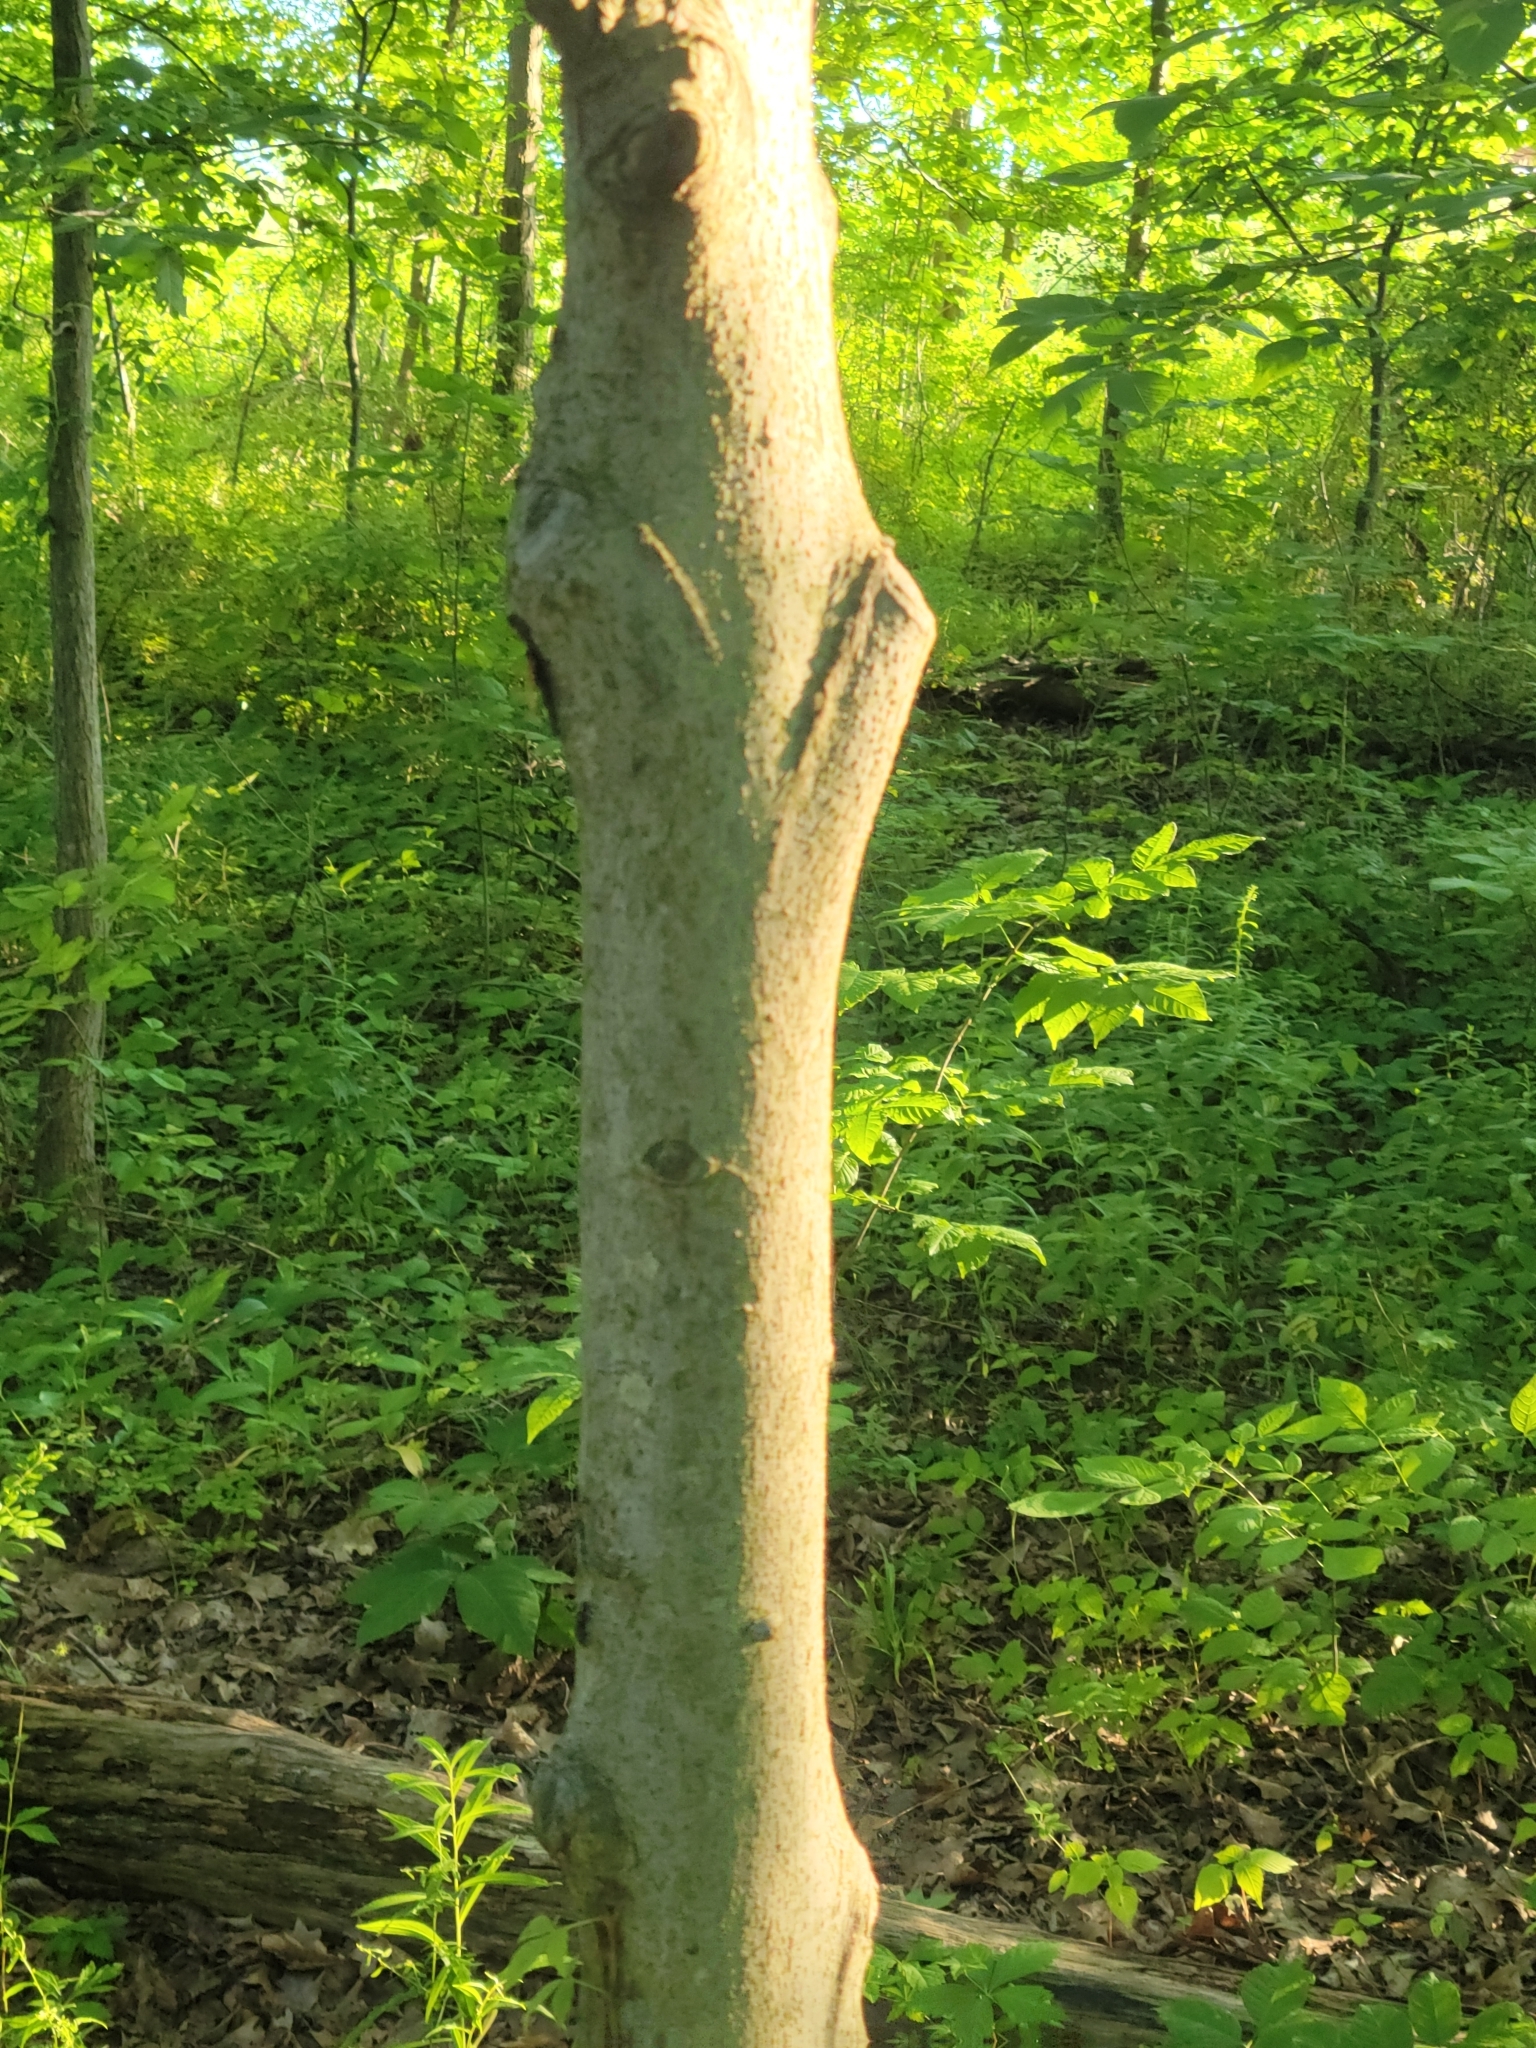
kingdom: Plantae
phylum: Tracheophyta
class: Magnoliopsida
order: Fagales
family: Fagaceae
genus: Fagus
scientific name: Fagus grandifolia
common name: American beech
